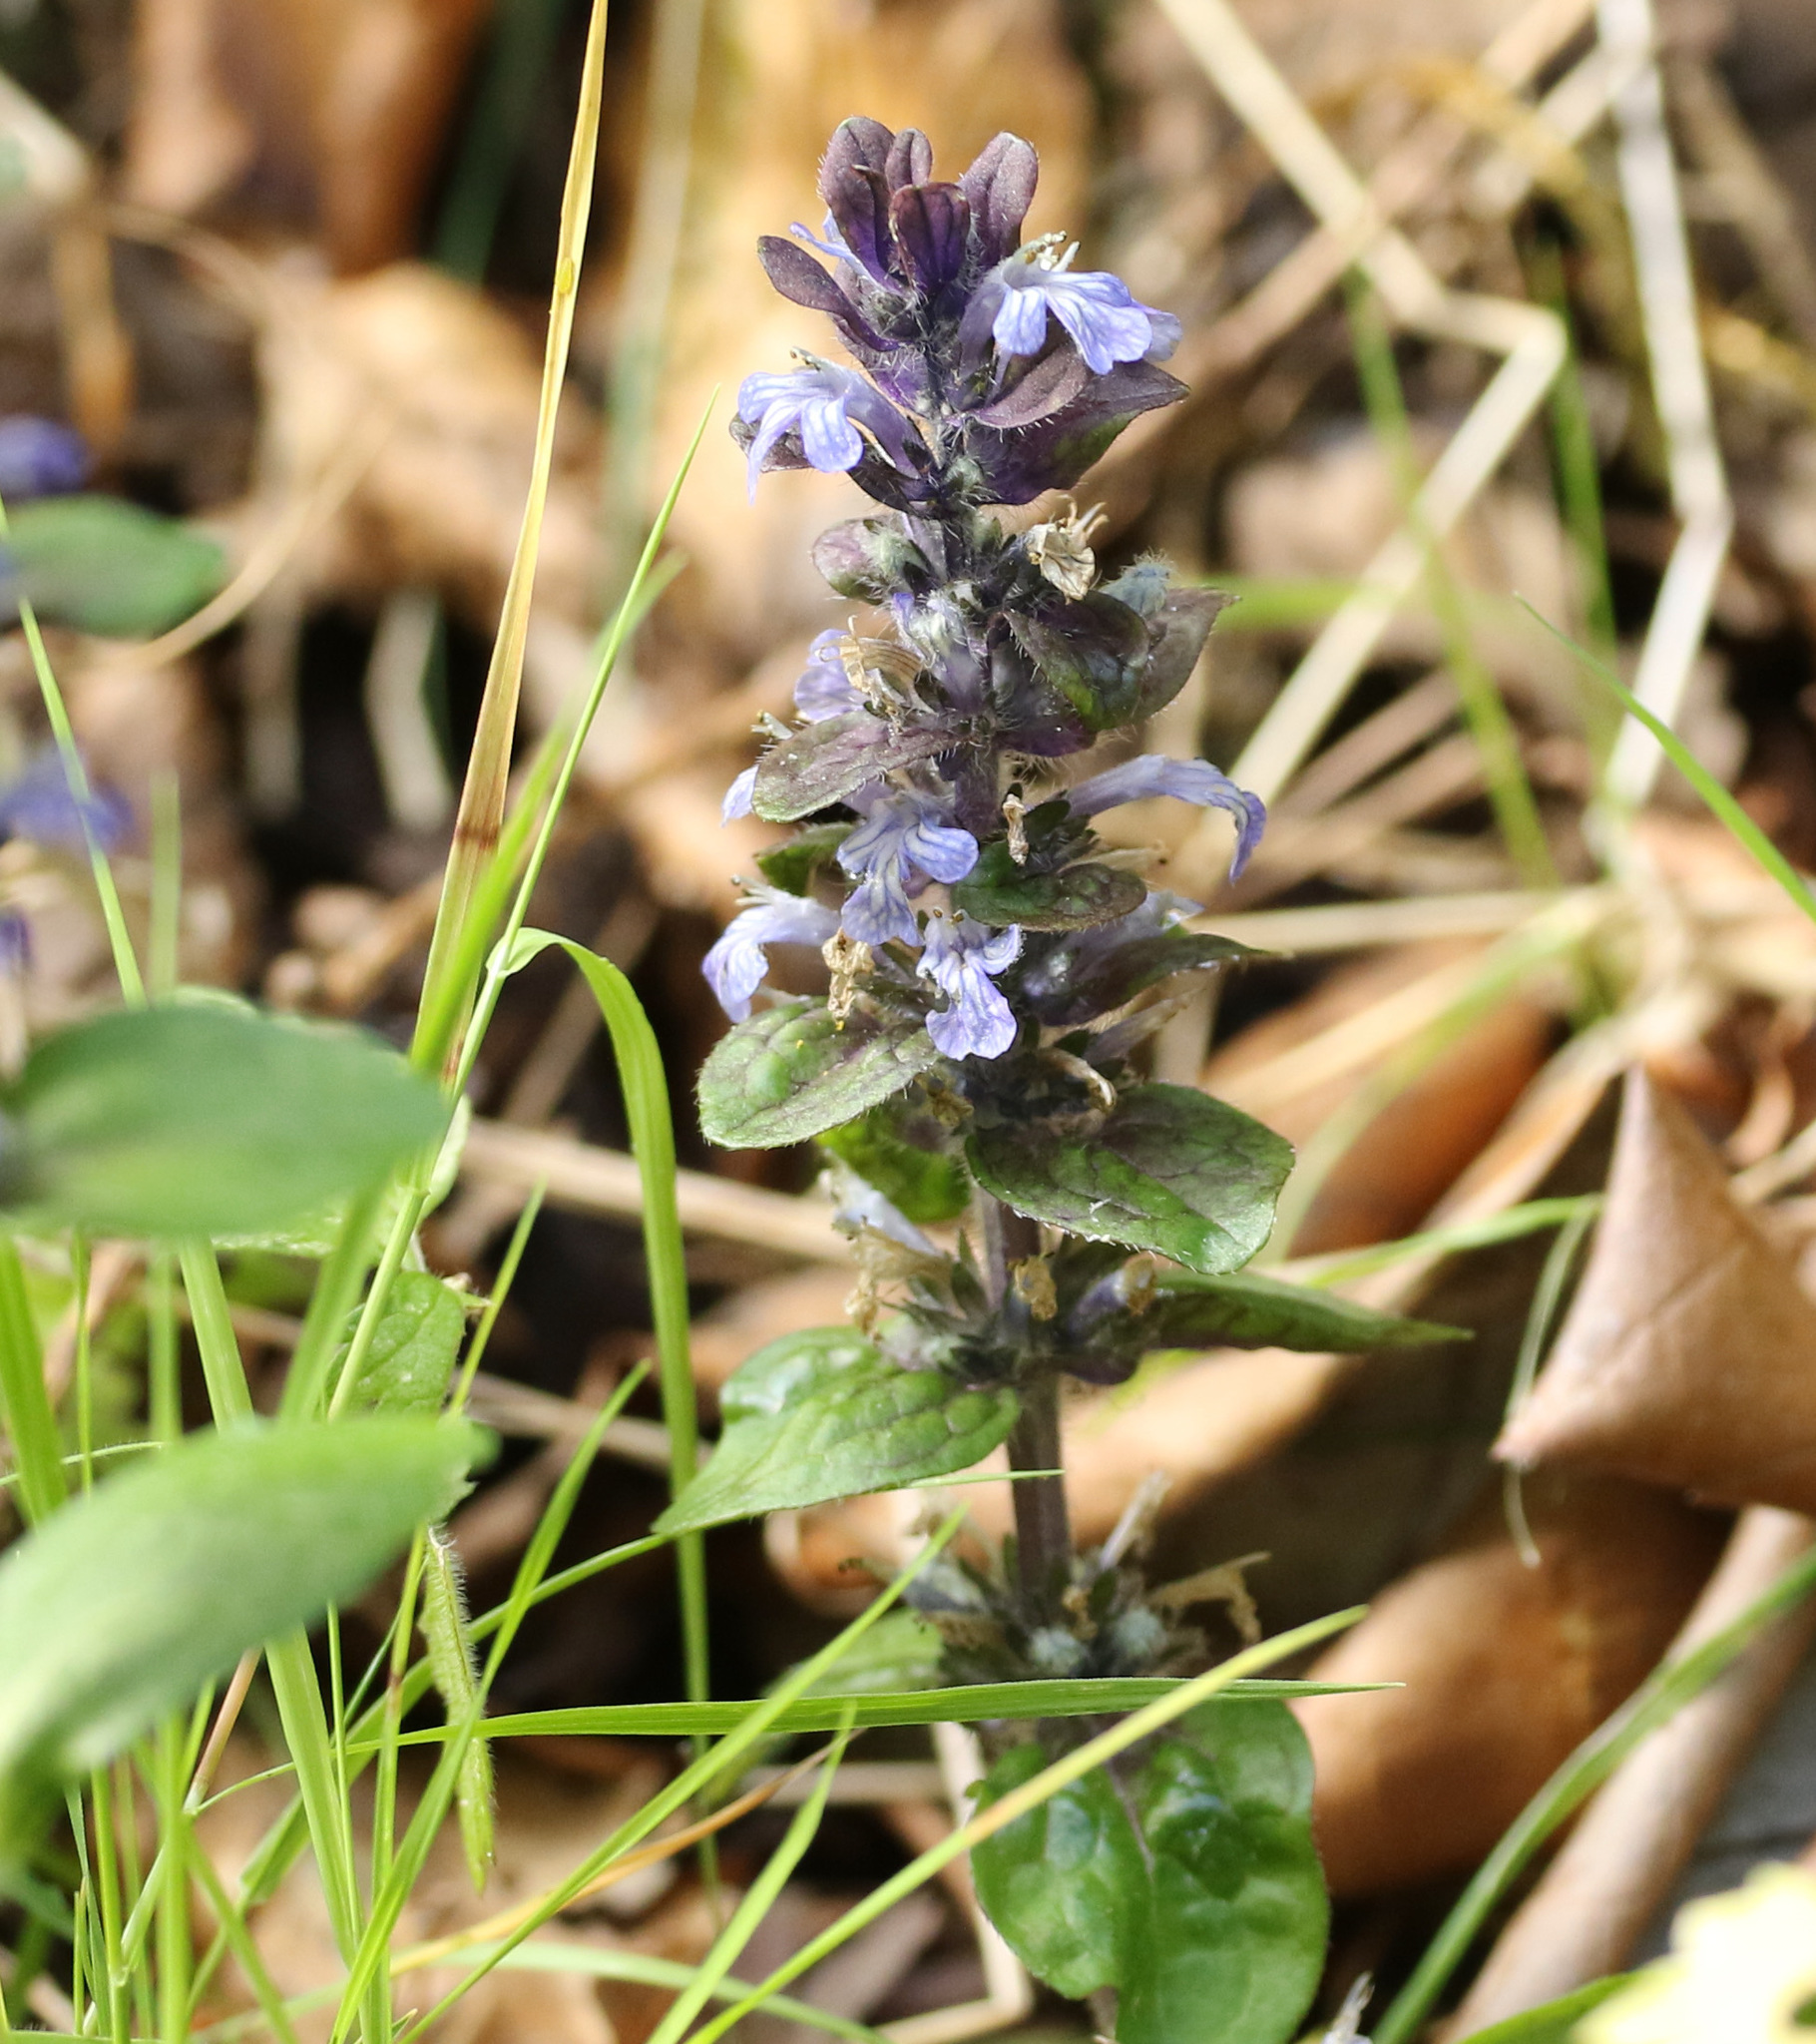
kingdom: Plantae
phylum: Tracheophyta
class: Magnoliopsida
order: Lamiales
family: Lamiaceae
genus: Ajuga
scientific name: Ajuga reptans
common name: Bugle
